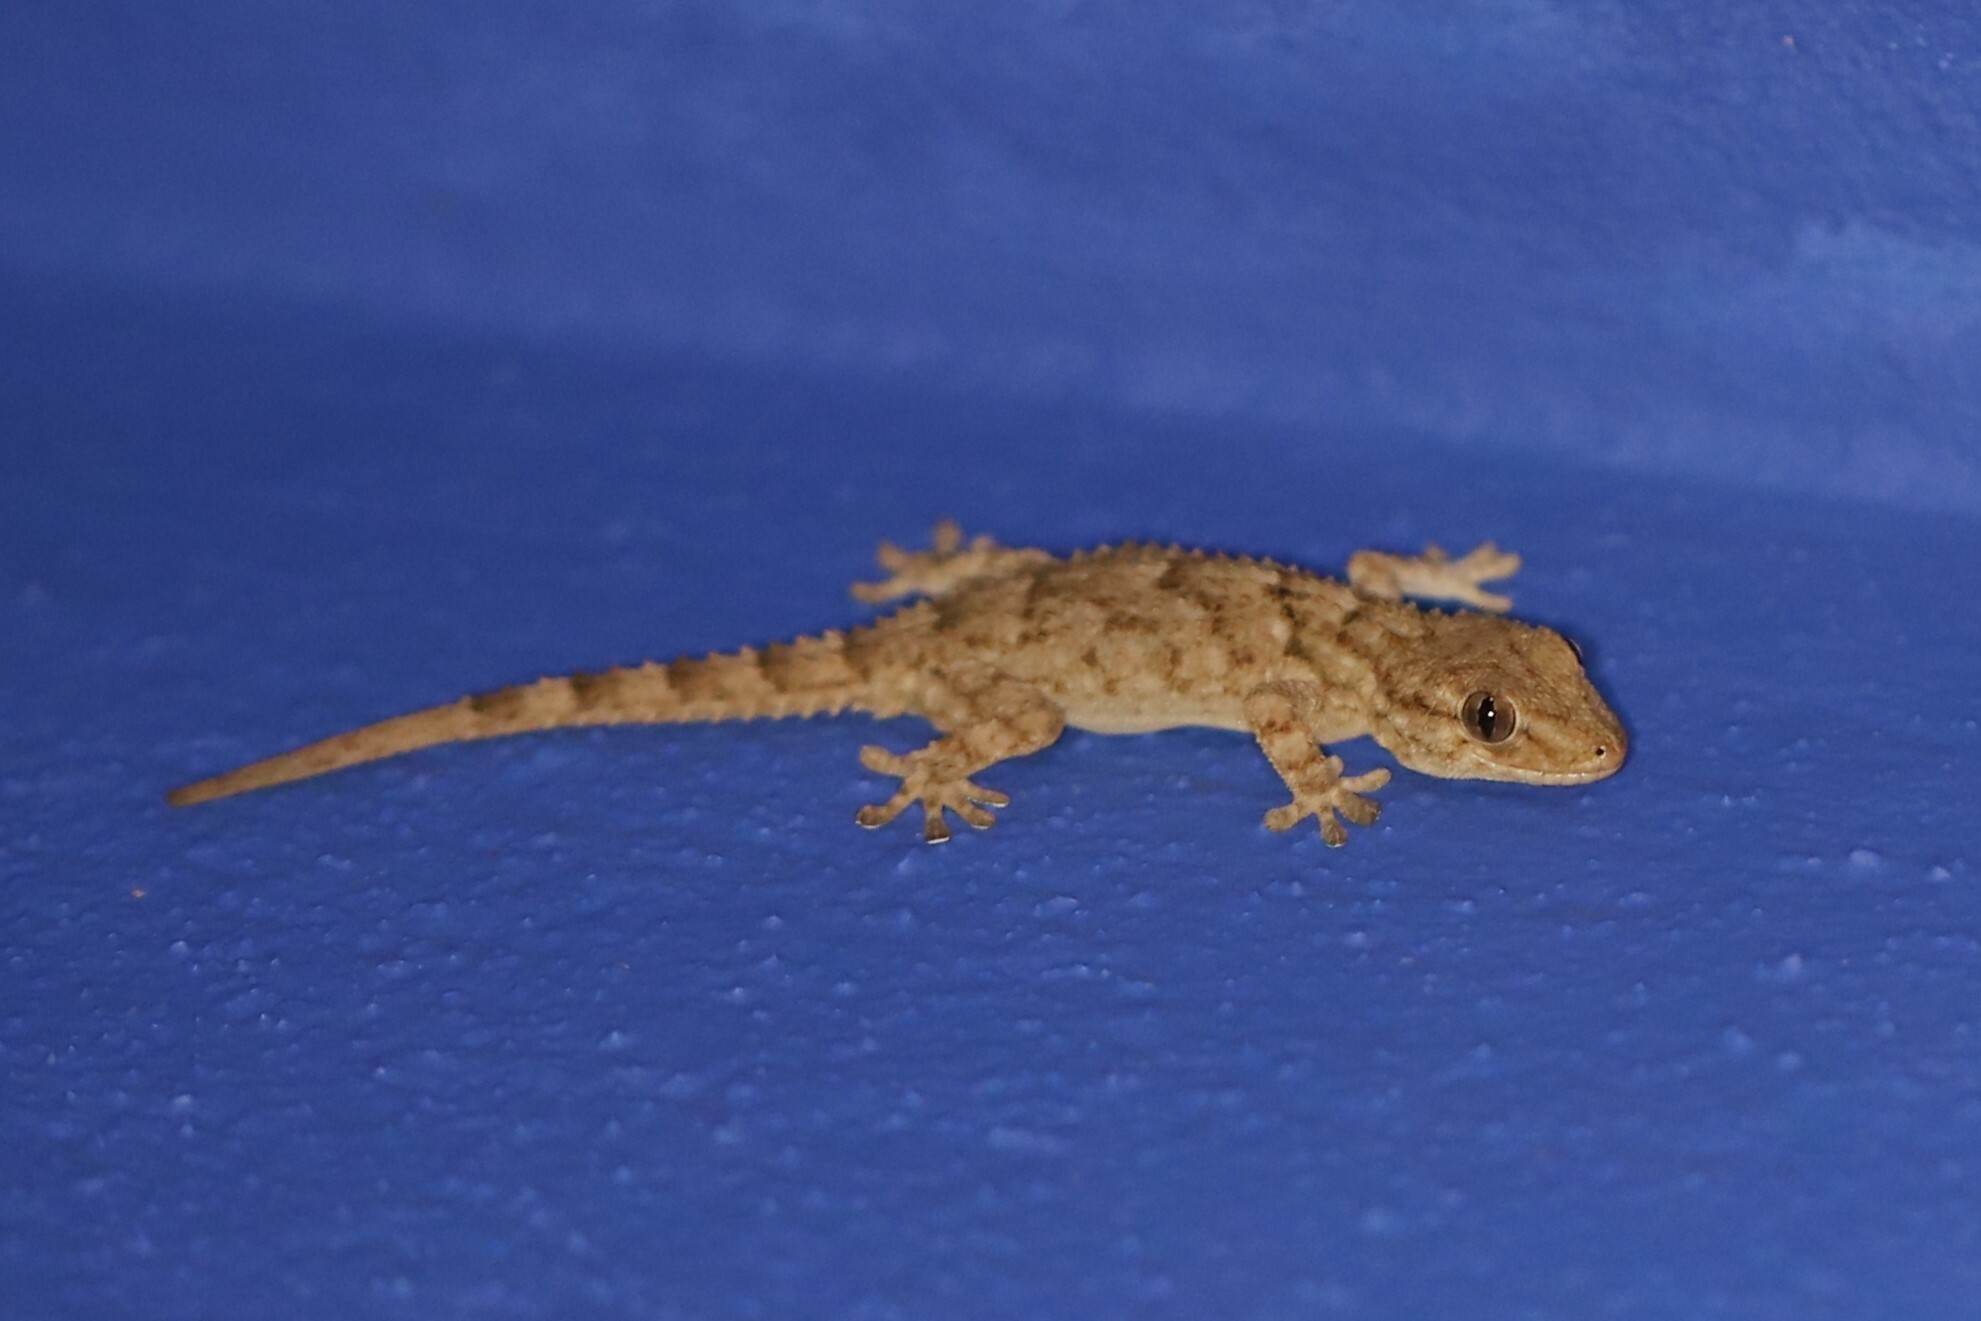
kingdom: Animalia
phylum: Chordata
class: Squamata
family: Phyllodactylidae
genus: Tarentola
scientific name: Tarentola mauritanica
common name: Moorish gecko
